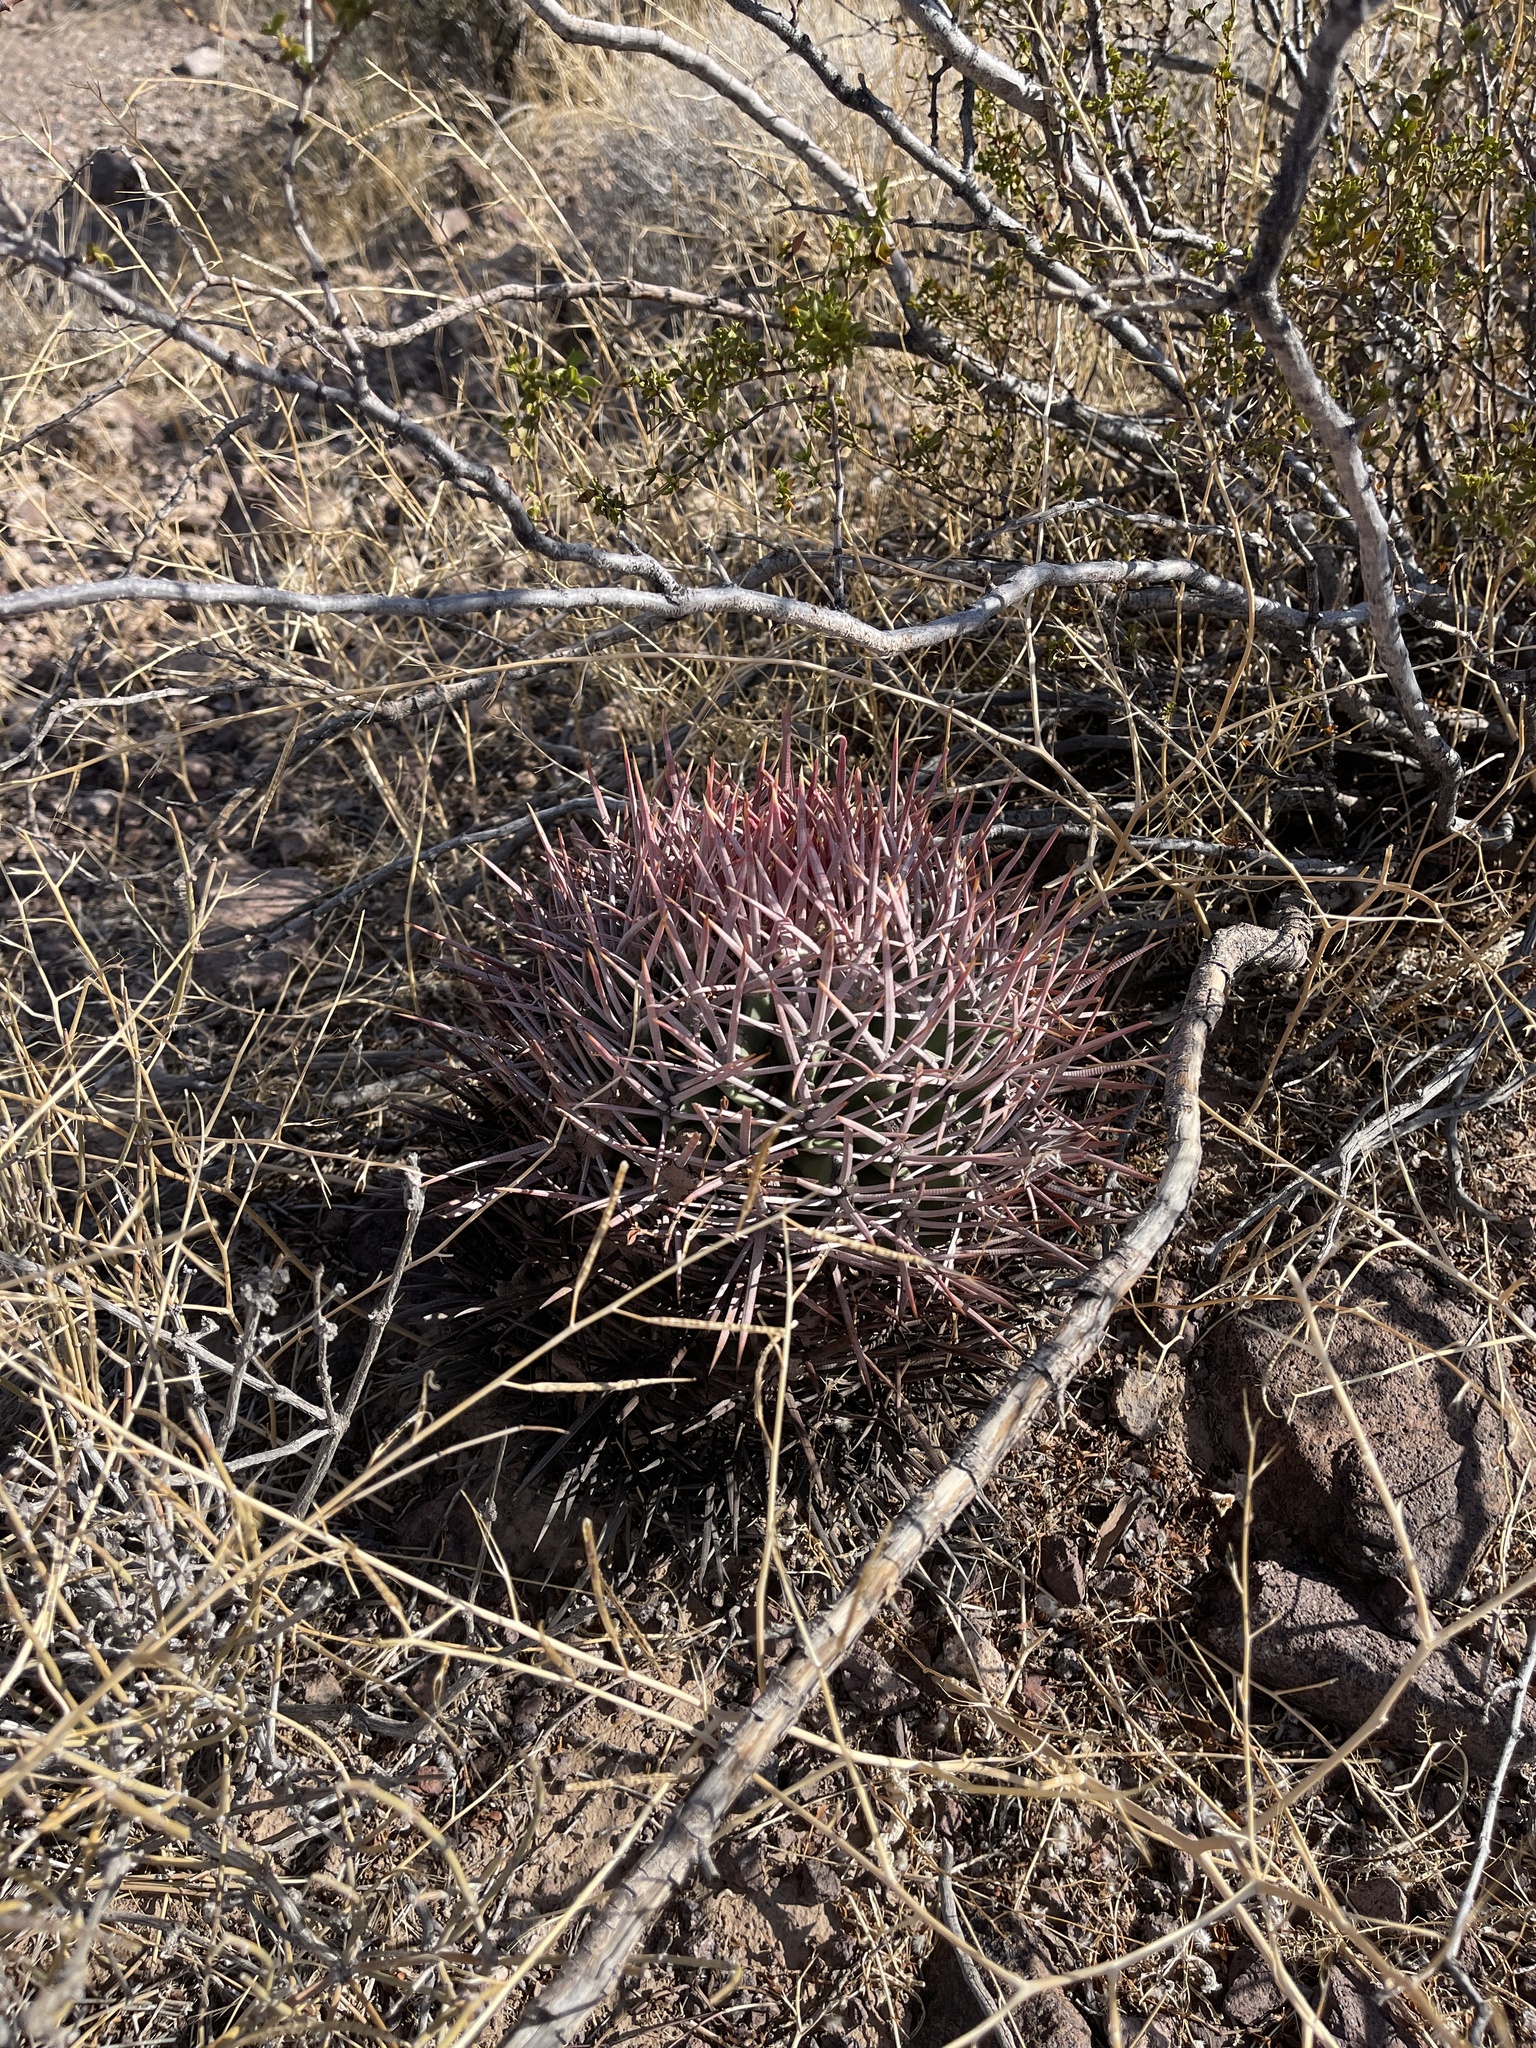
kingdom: Plantae
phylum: Tracheophyta
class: Magnoliopsida
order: Caryophyllales
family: Cactaceae
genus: Echinocactus
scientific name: Echinocactus polycephalus
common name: Cottontop cactus
